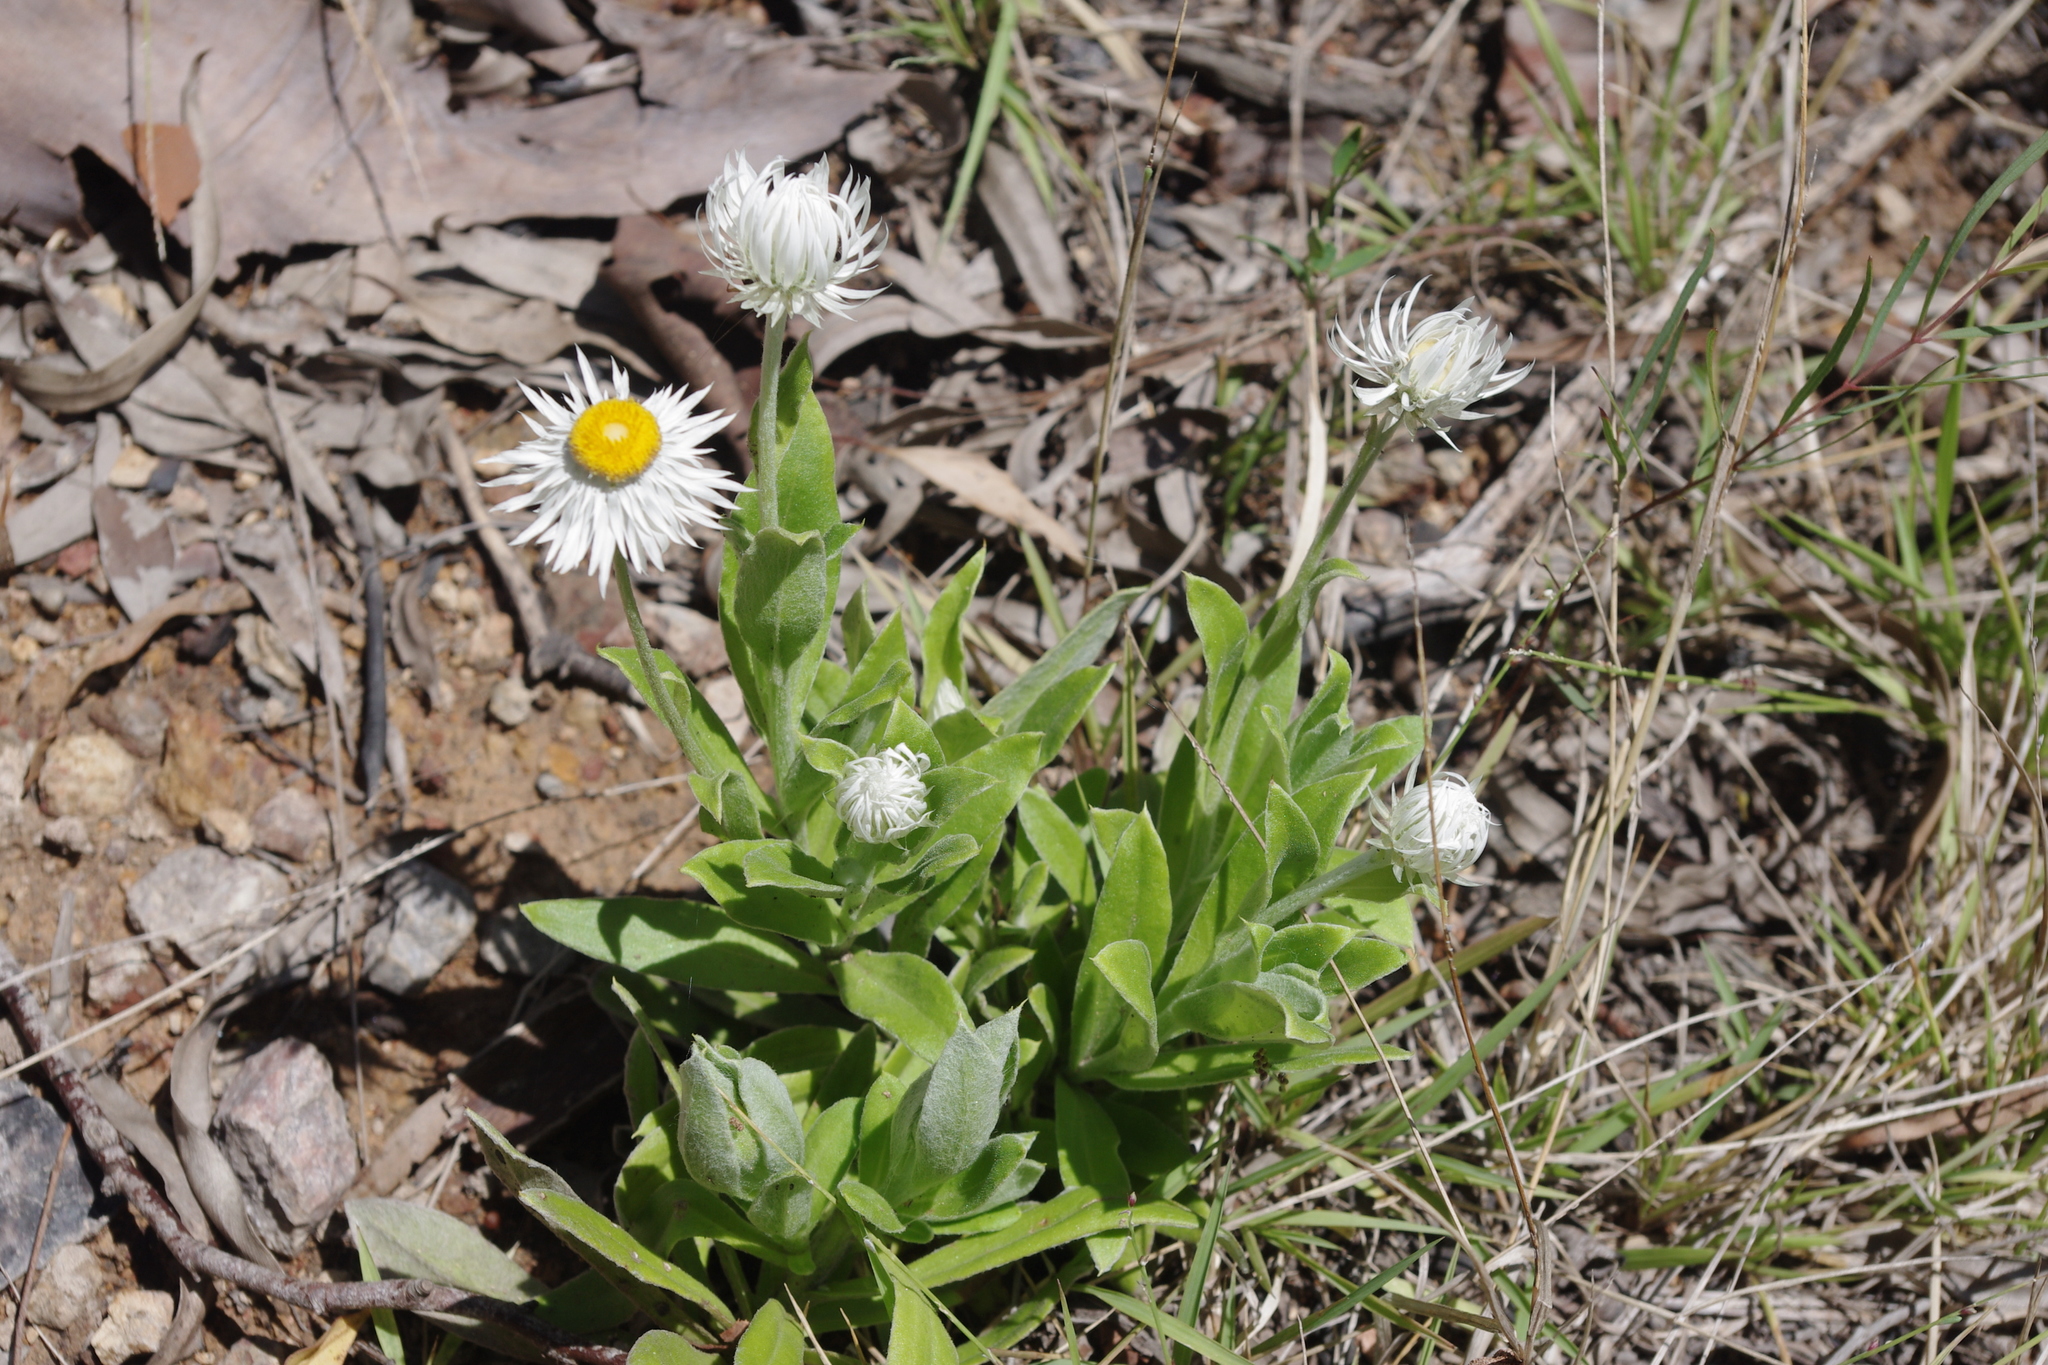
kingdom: Plantae
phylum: Tracheophyta
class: Magnoliopsida
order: Asterales
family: Asteraceae
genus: Leucozoma
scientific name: Leucozoma boormanii
